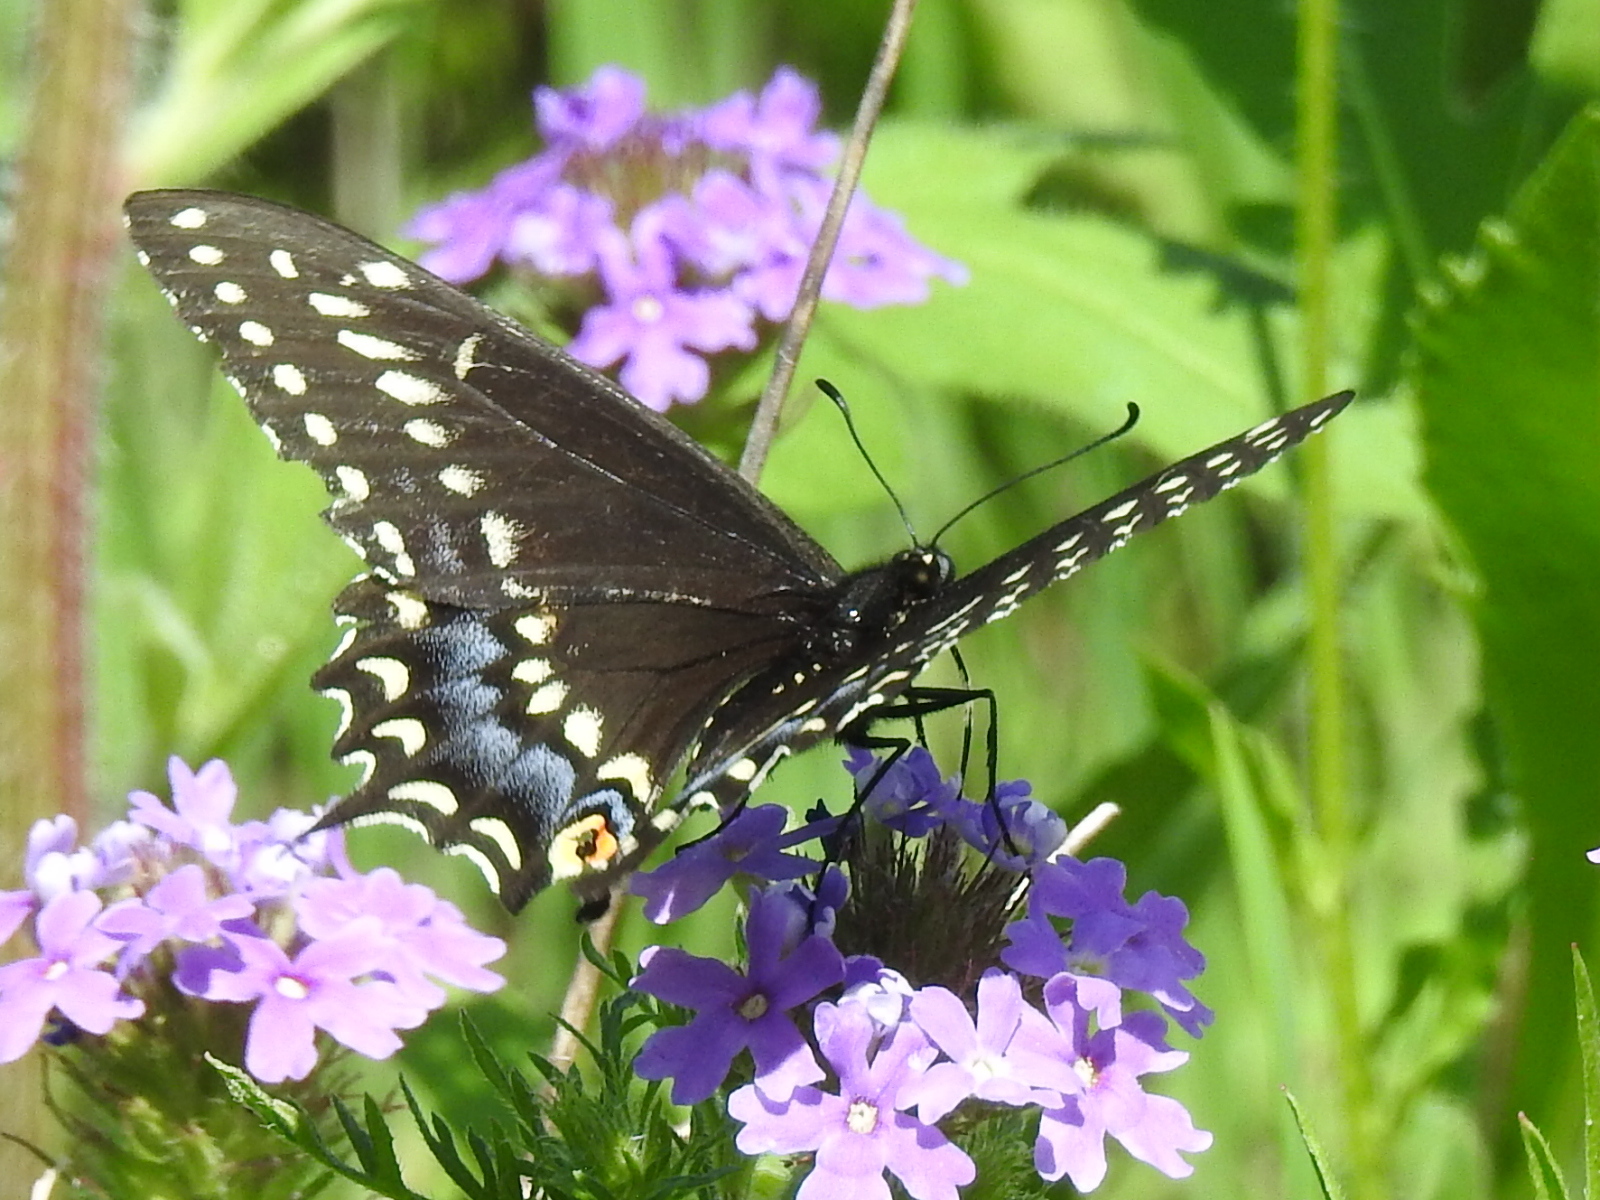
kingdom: Animalia
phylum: Arthropoda
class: Insecta
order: Lepidoptera
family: Papilionidae
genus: Papilio
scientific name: Papilio polyxenes
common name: Black swallowtail
